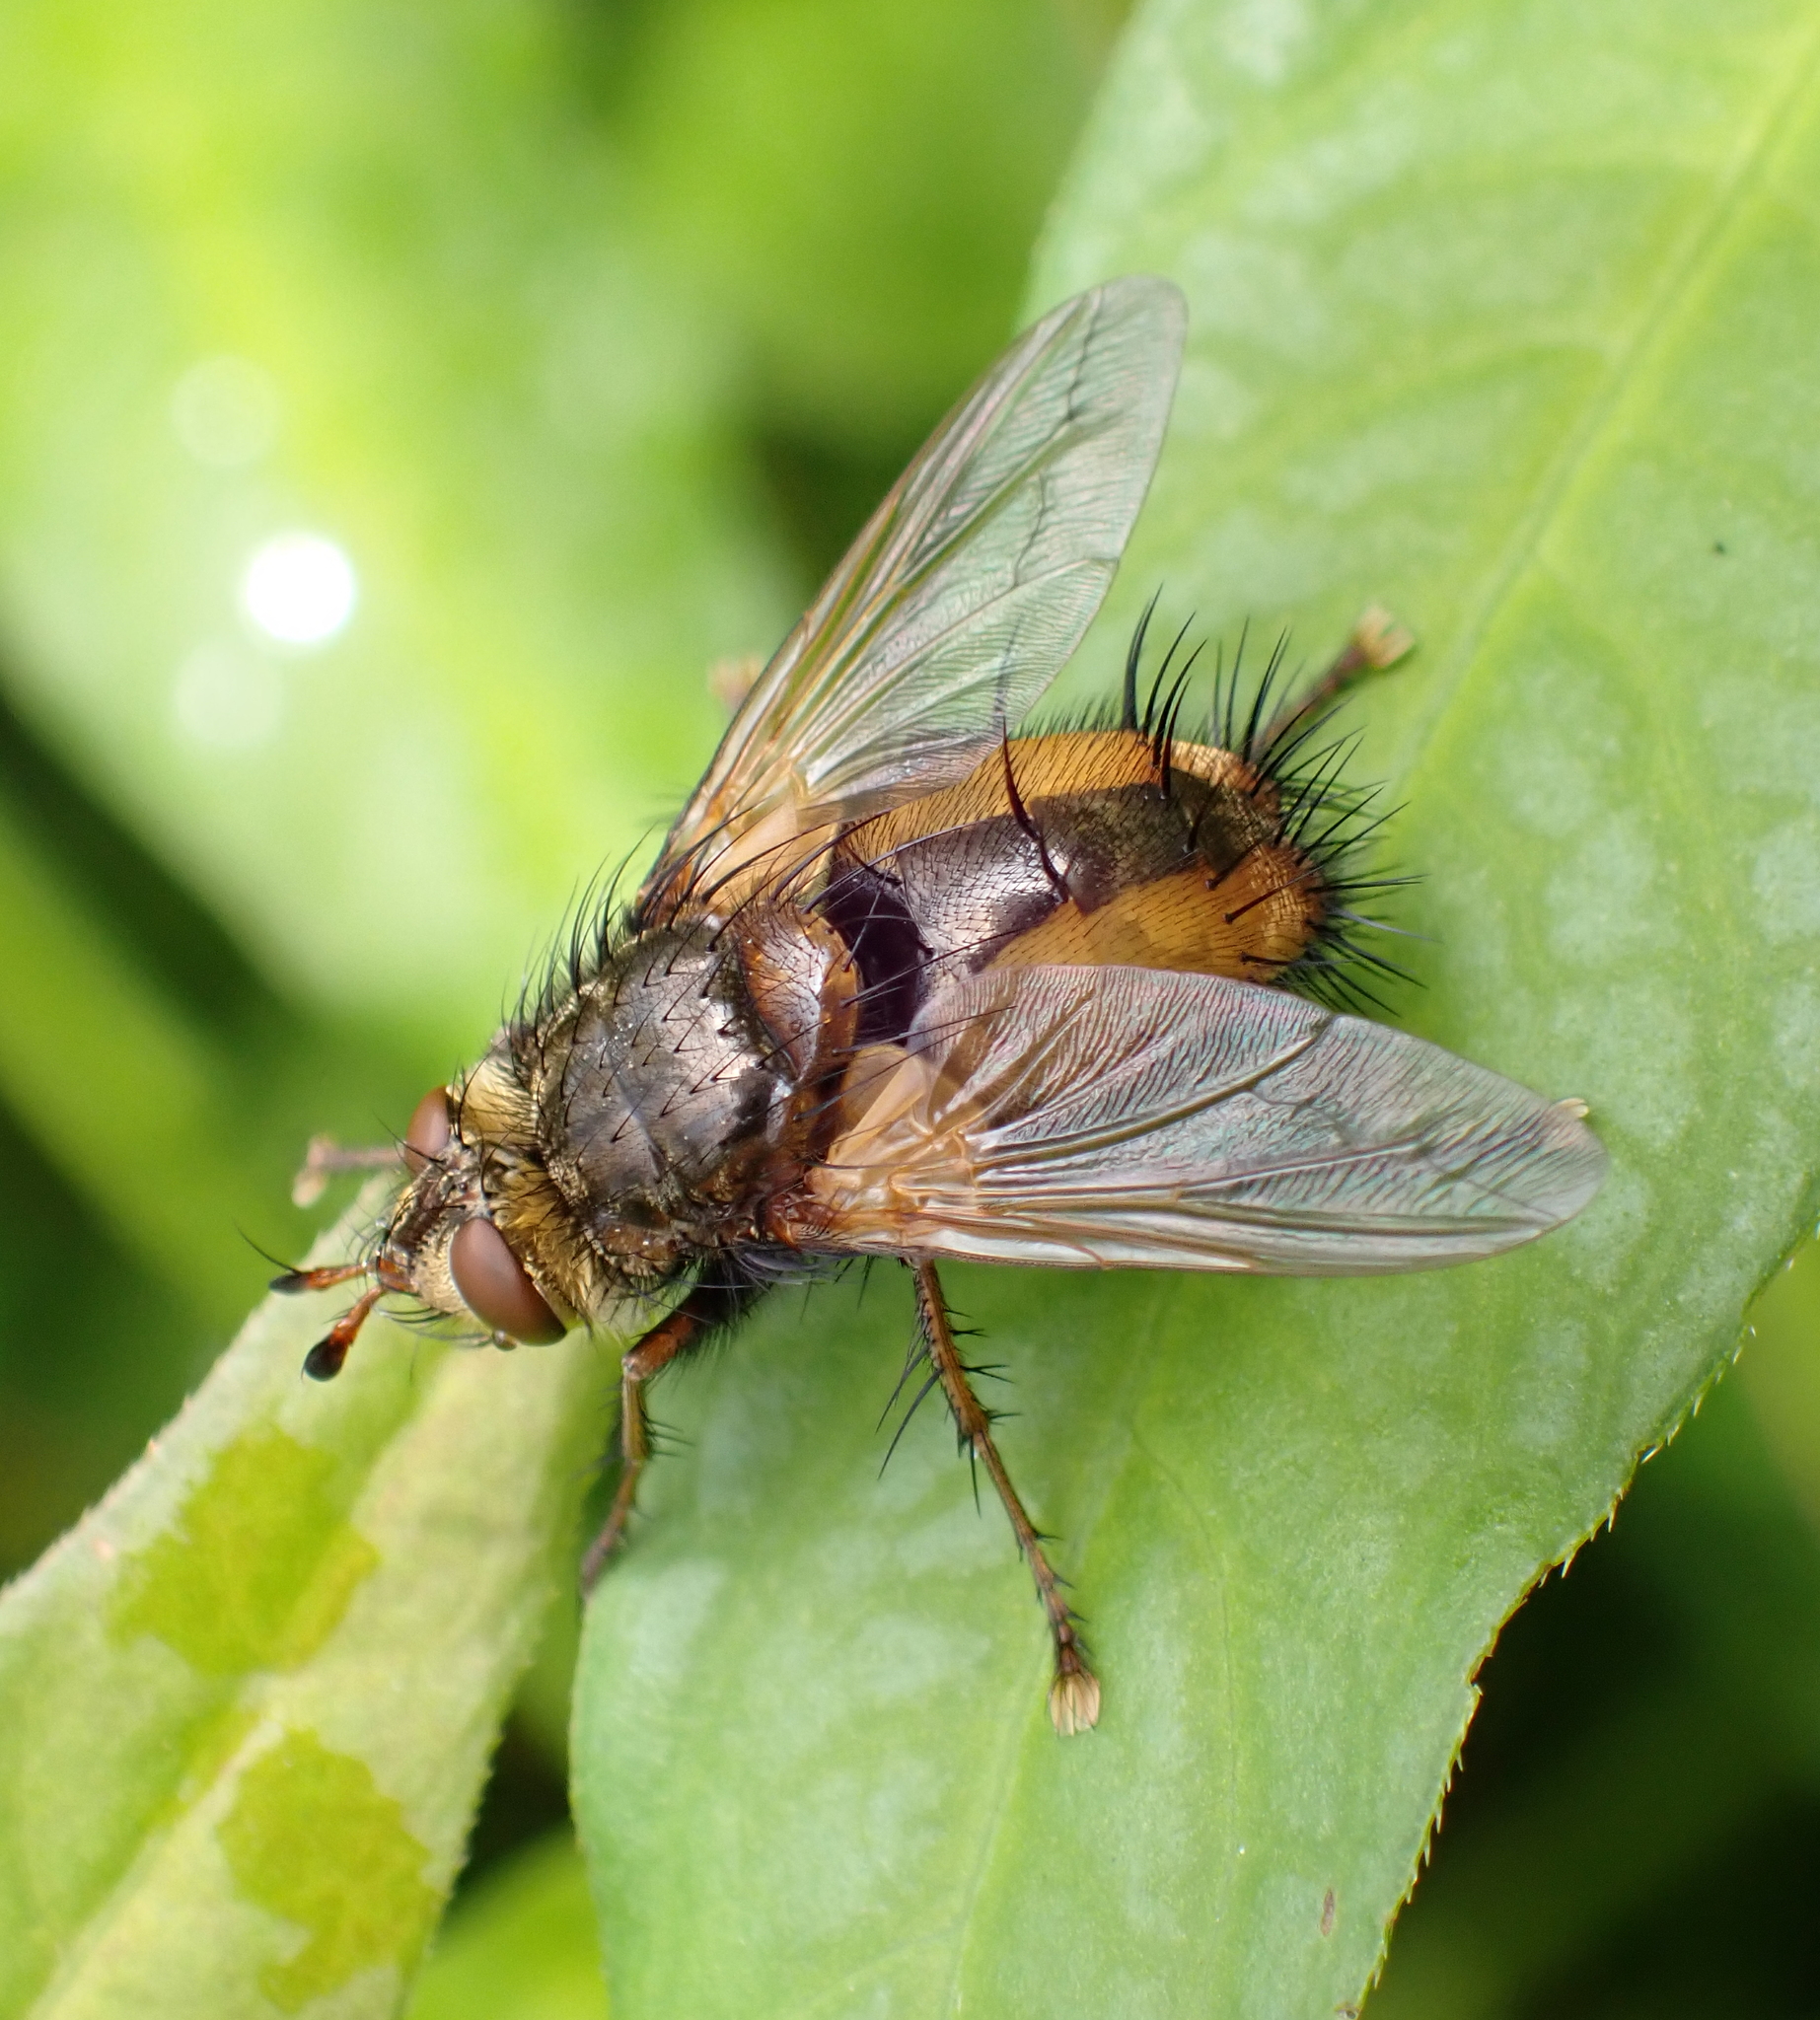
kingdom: Animalia
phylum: Arthropoda
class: Insecta
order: Diptera
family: Tachinidae
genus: Tachina
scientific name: Tachina fera
